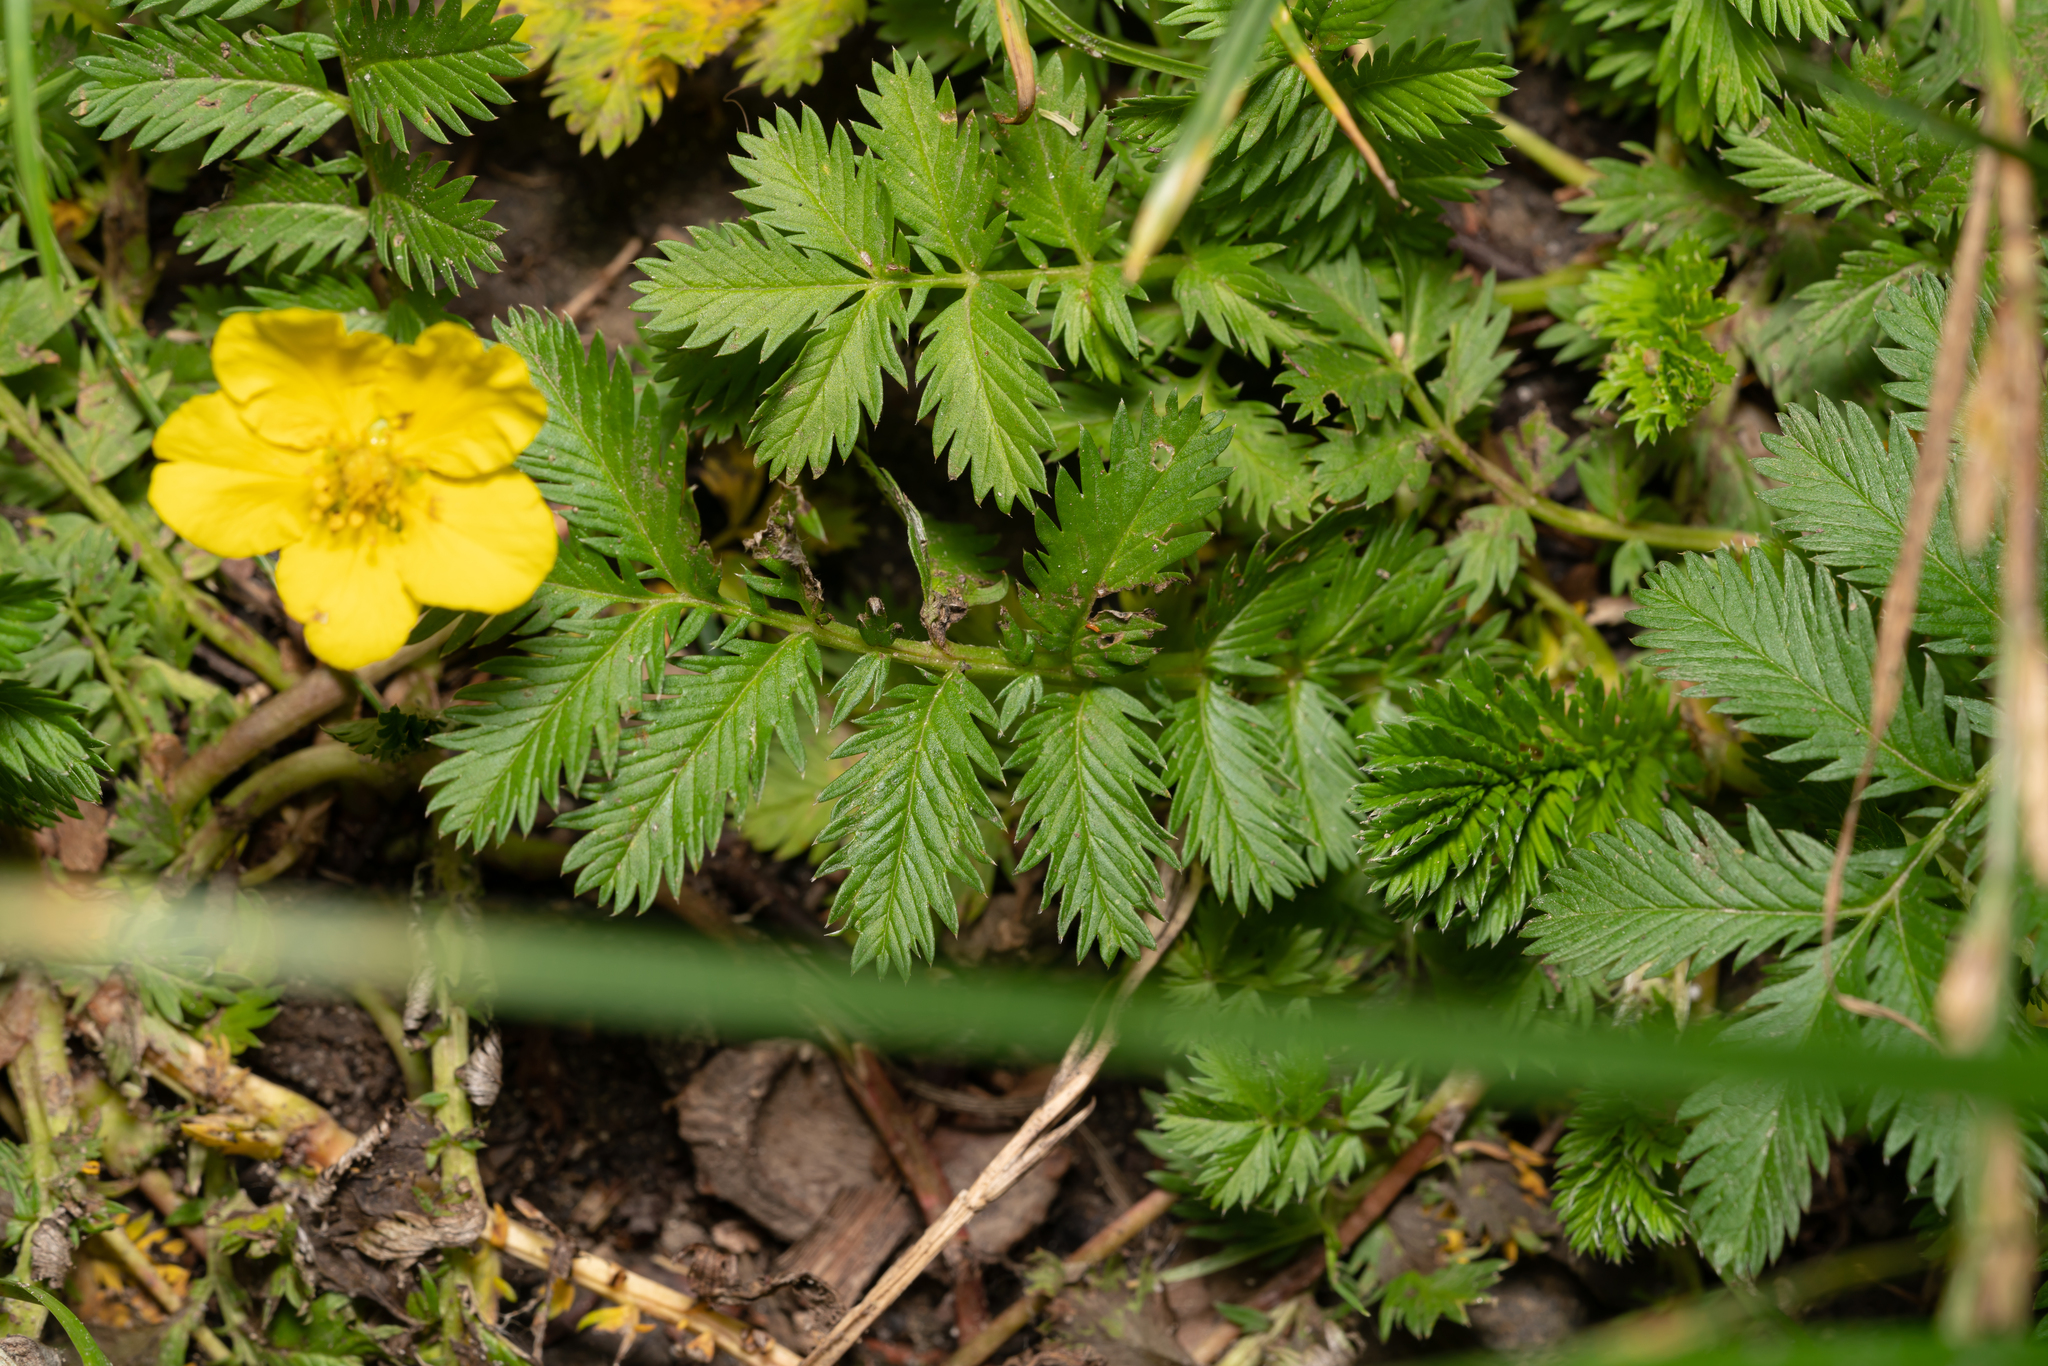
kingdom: Plantae
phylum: Tracheophyta
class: Magnoliopsida
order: Rosales
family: Rosaceae
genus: Argentina
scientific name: Argentina anserina
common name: Common silverweed
